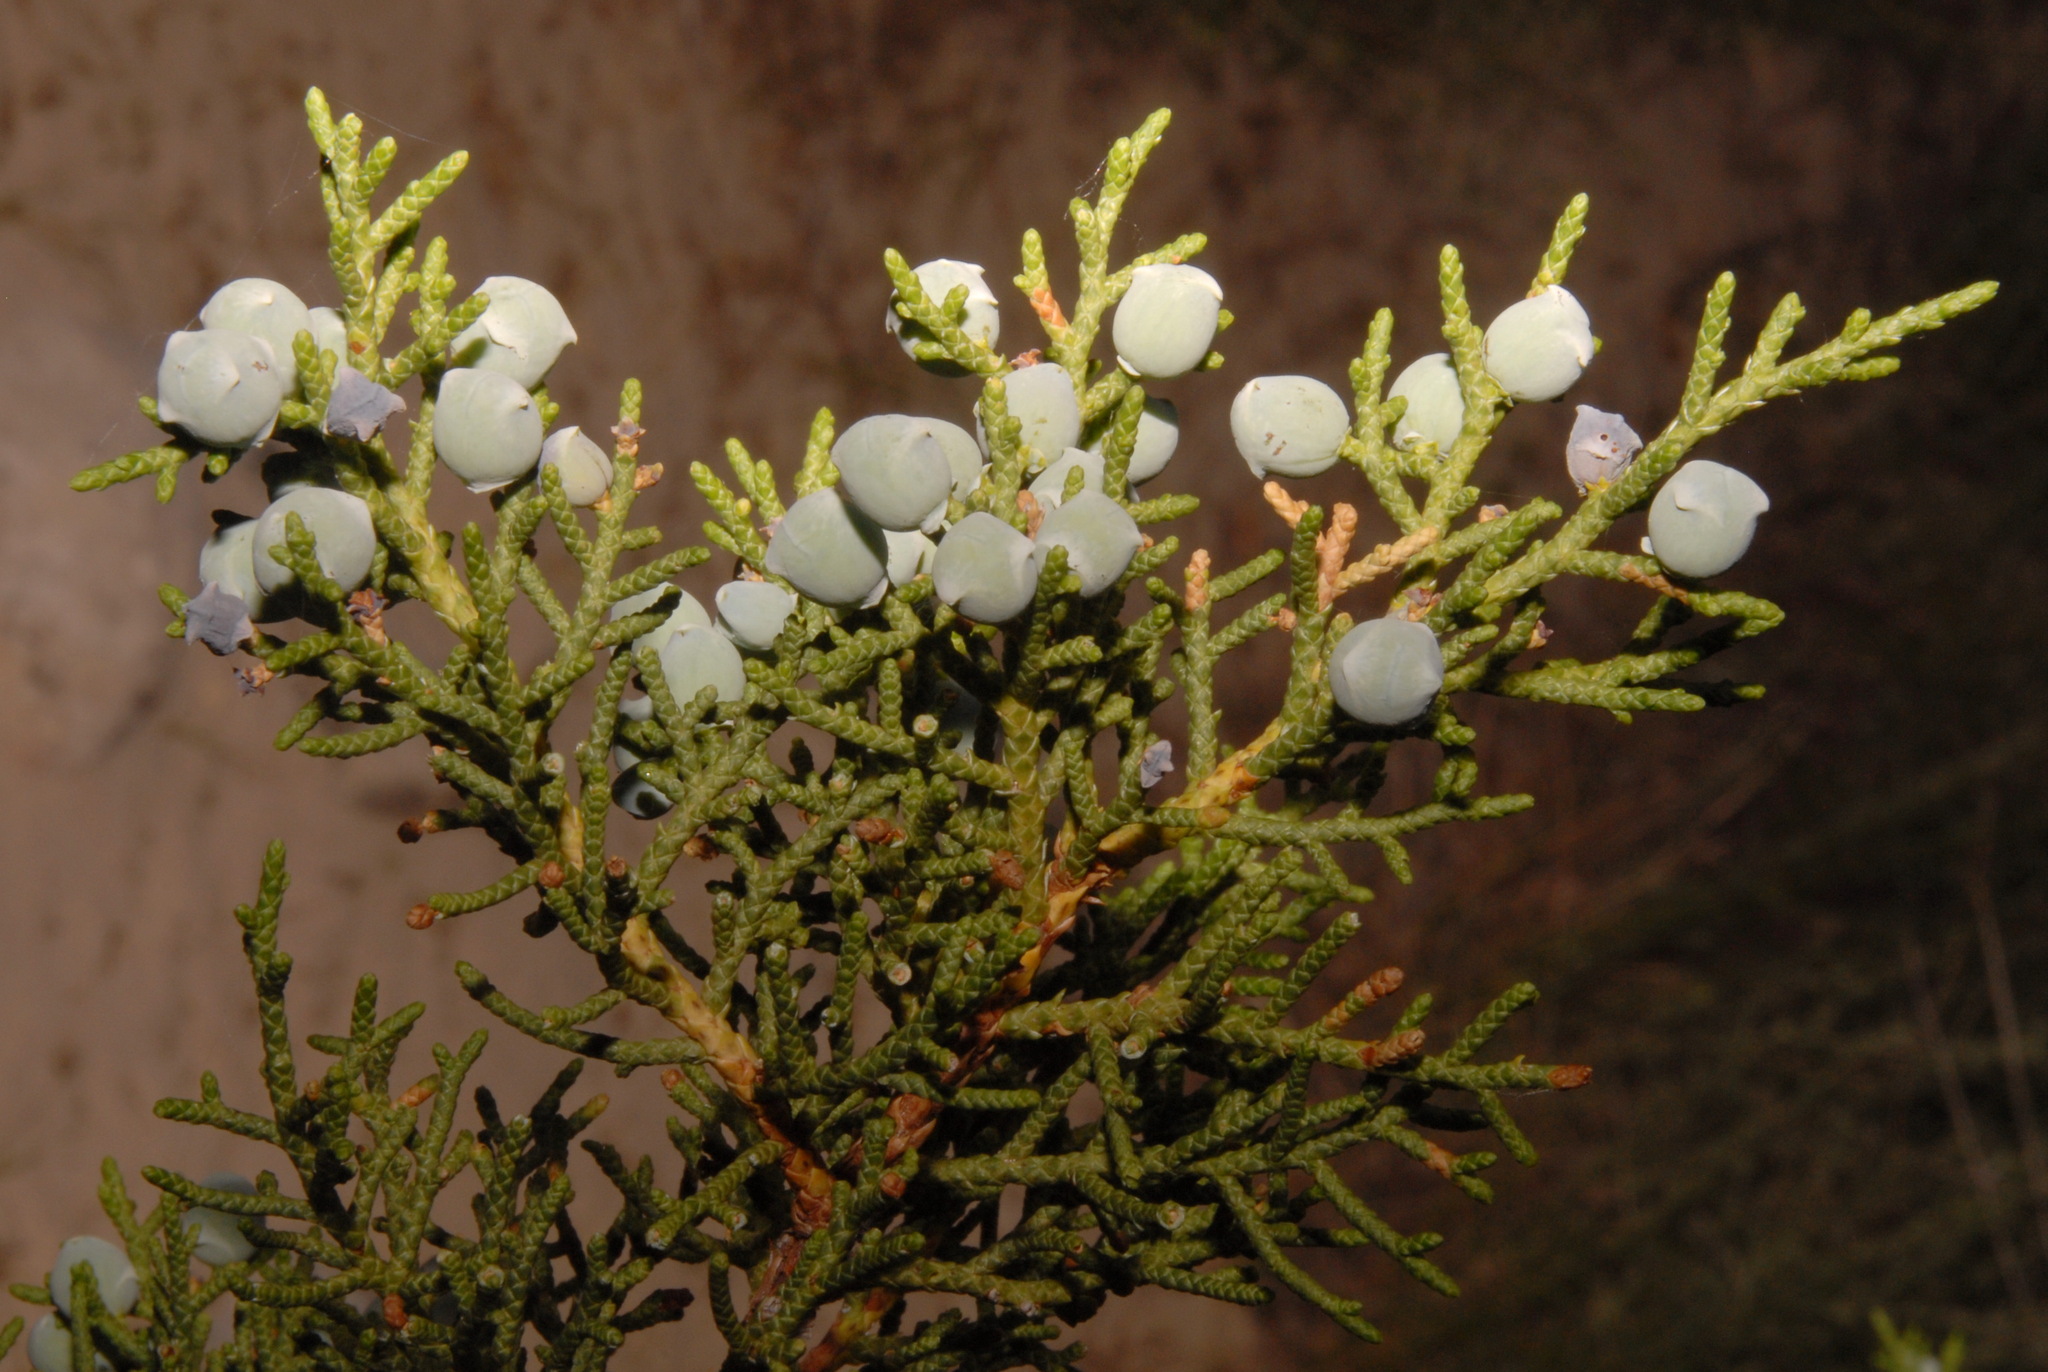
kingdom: Plantae
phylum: Tracheophyta
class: Pinopsida
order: Pinales
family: Cupressaceae
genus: Juniperus
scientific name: Juniperus osteosperma
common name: Utah juniper
